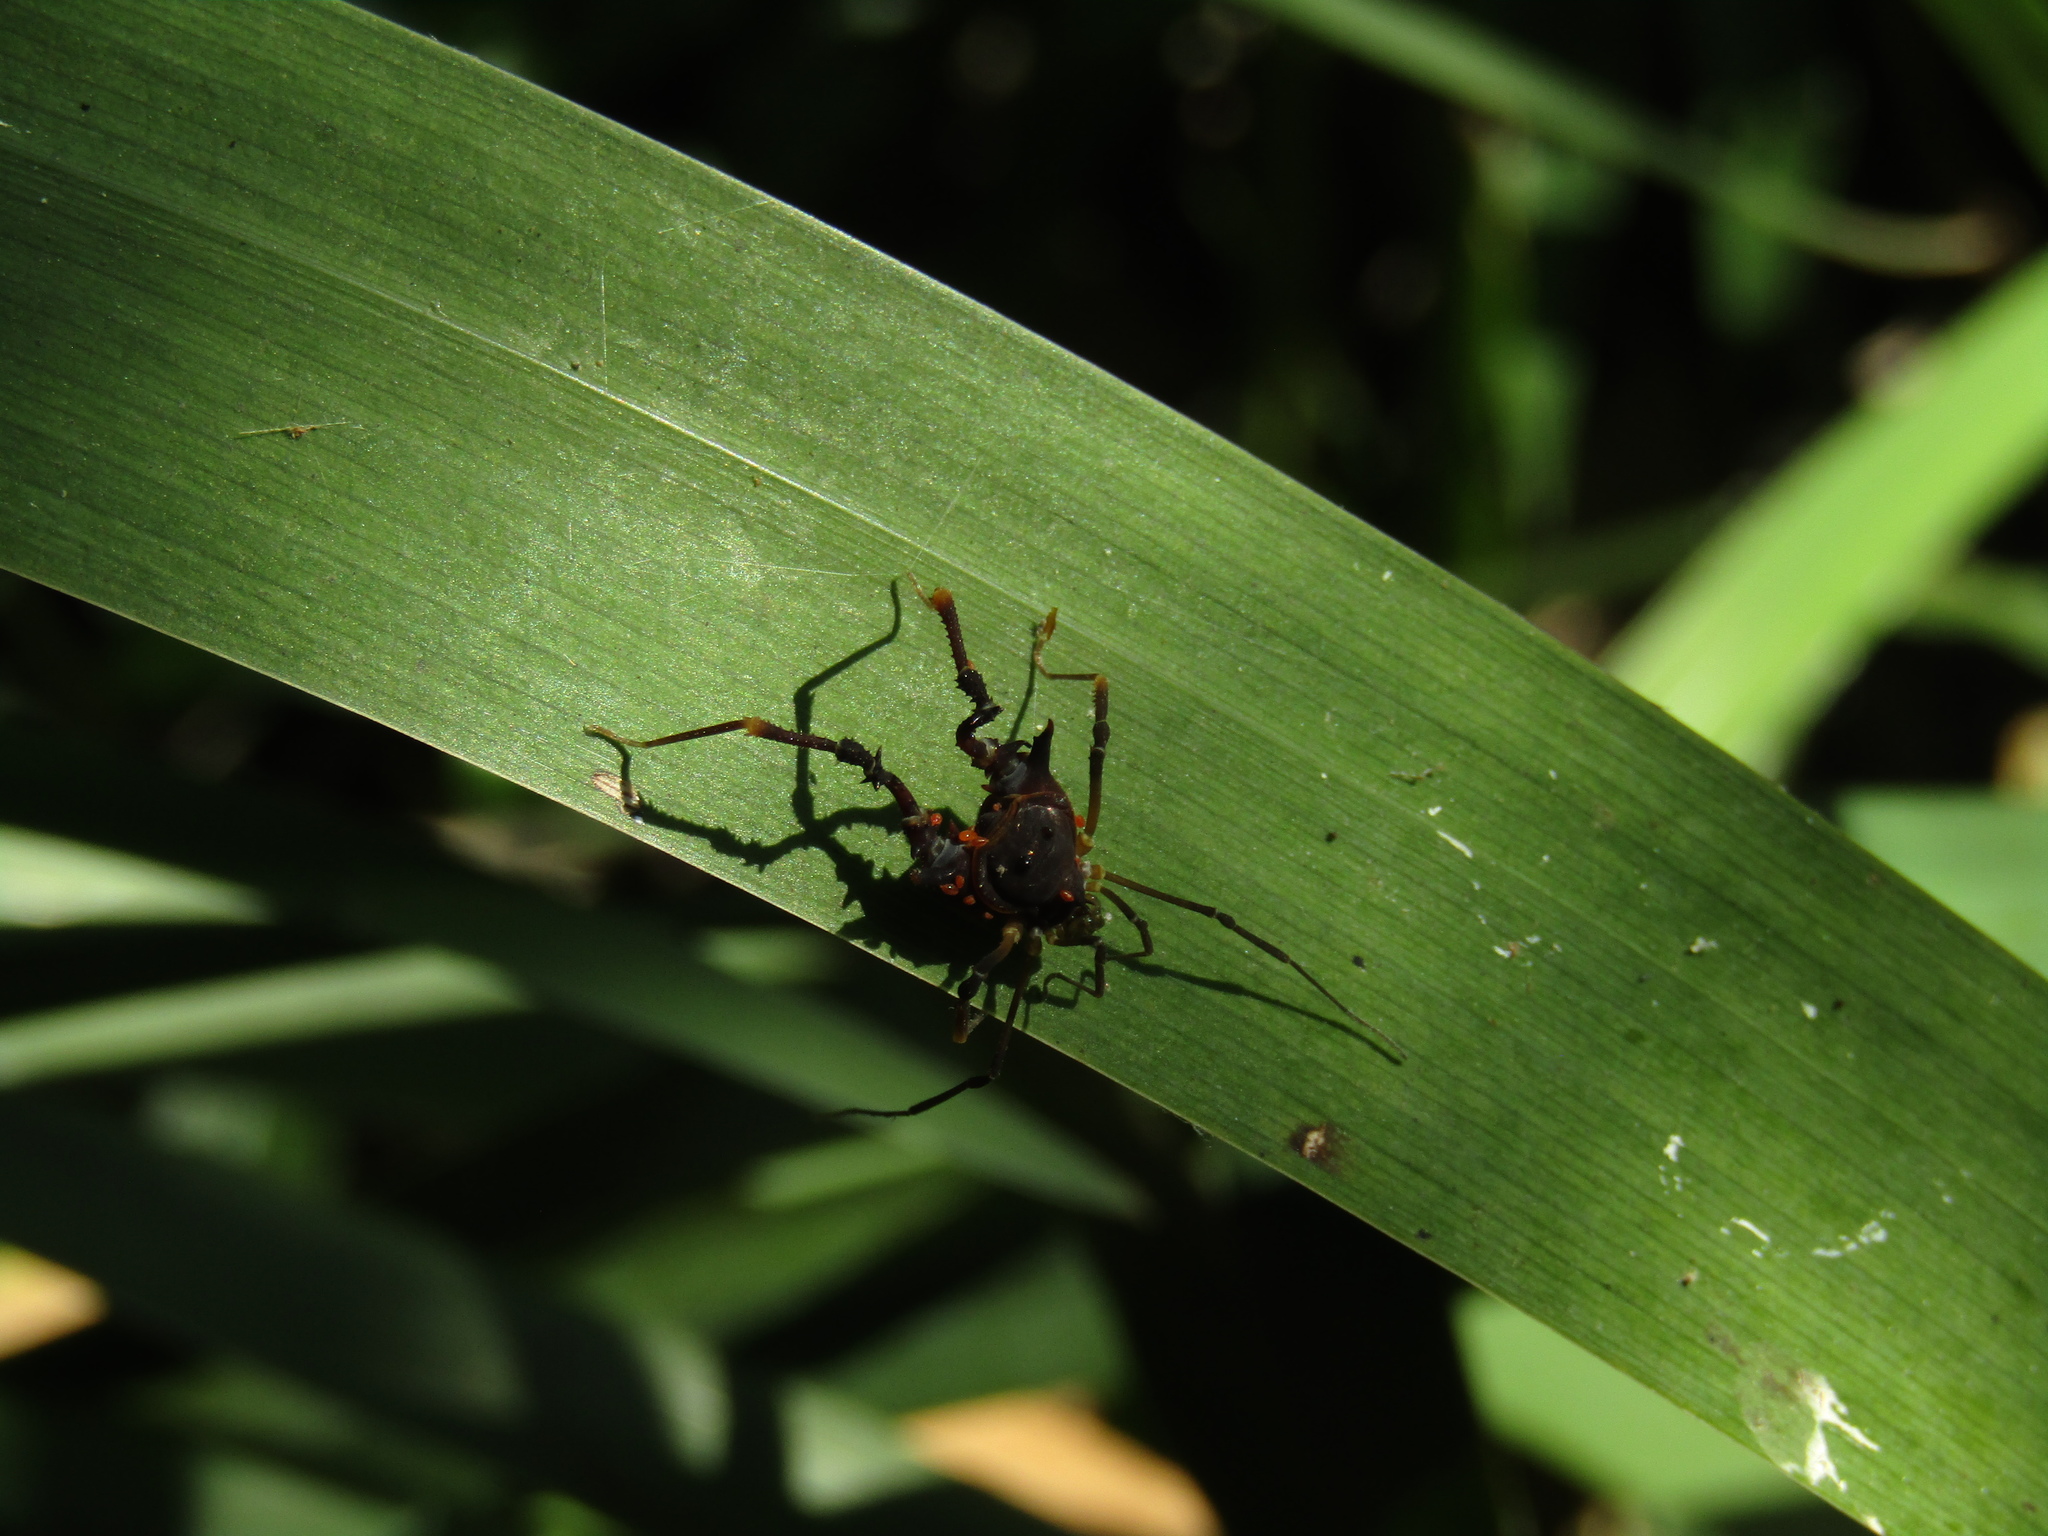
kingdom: Animalia
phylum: Arthropoda
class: Arachnida
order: Opiliones
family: Gonyleptidae
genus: Discocyrtus
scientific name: Discocyrtus testudineus
